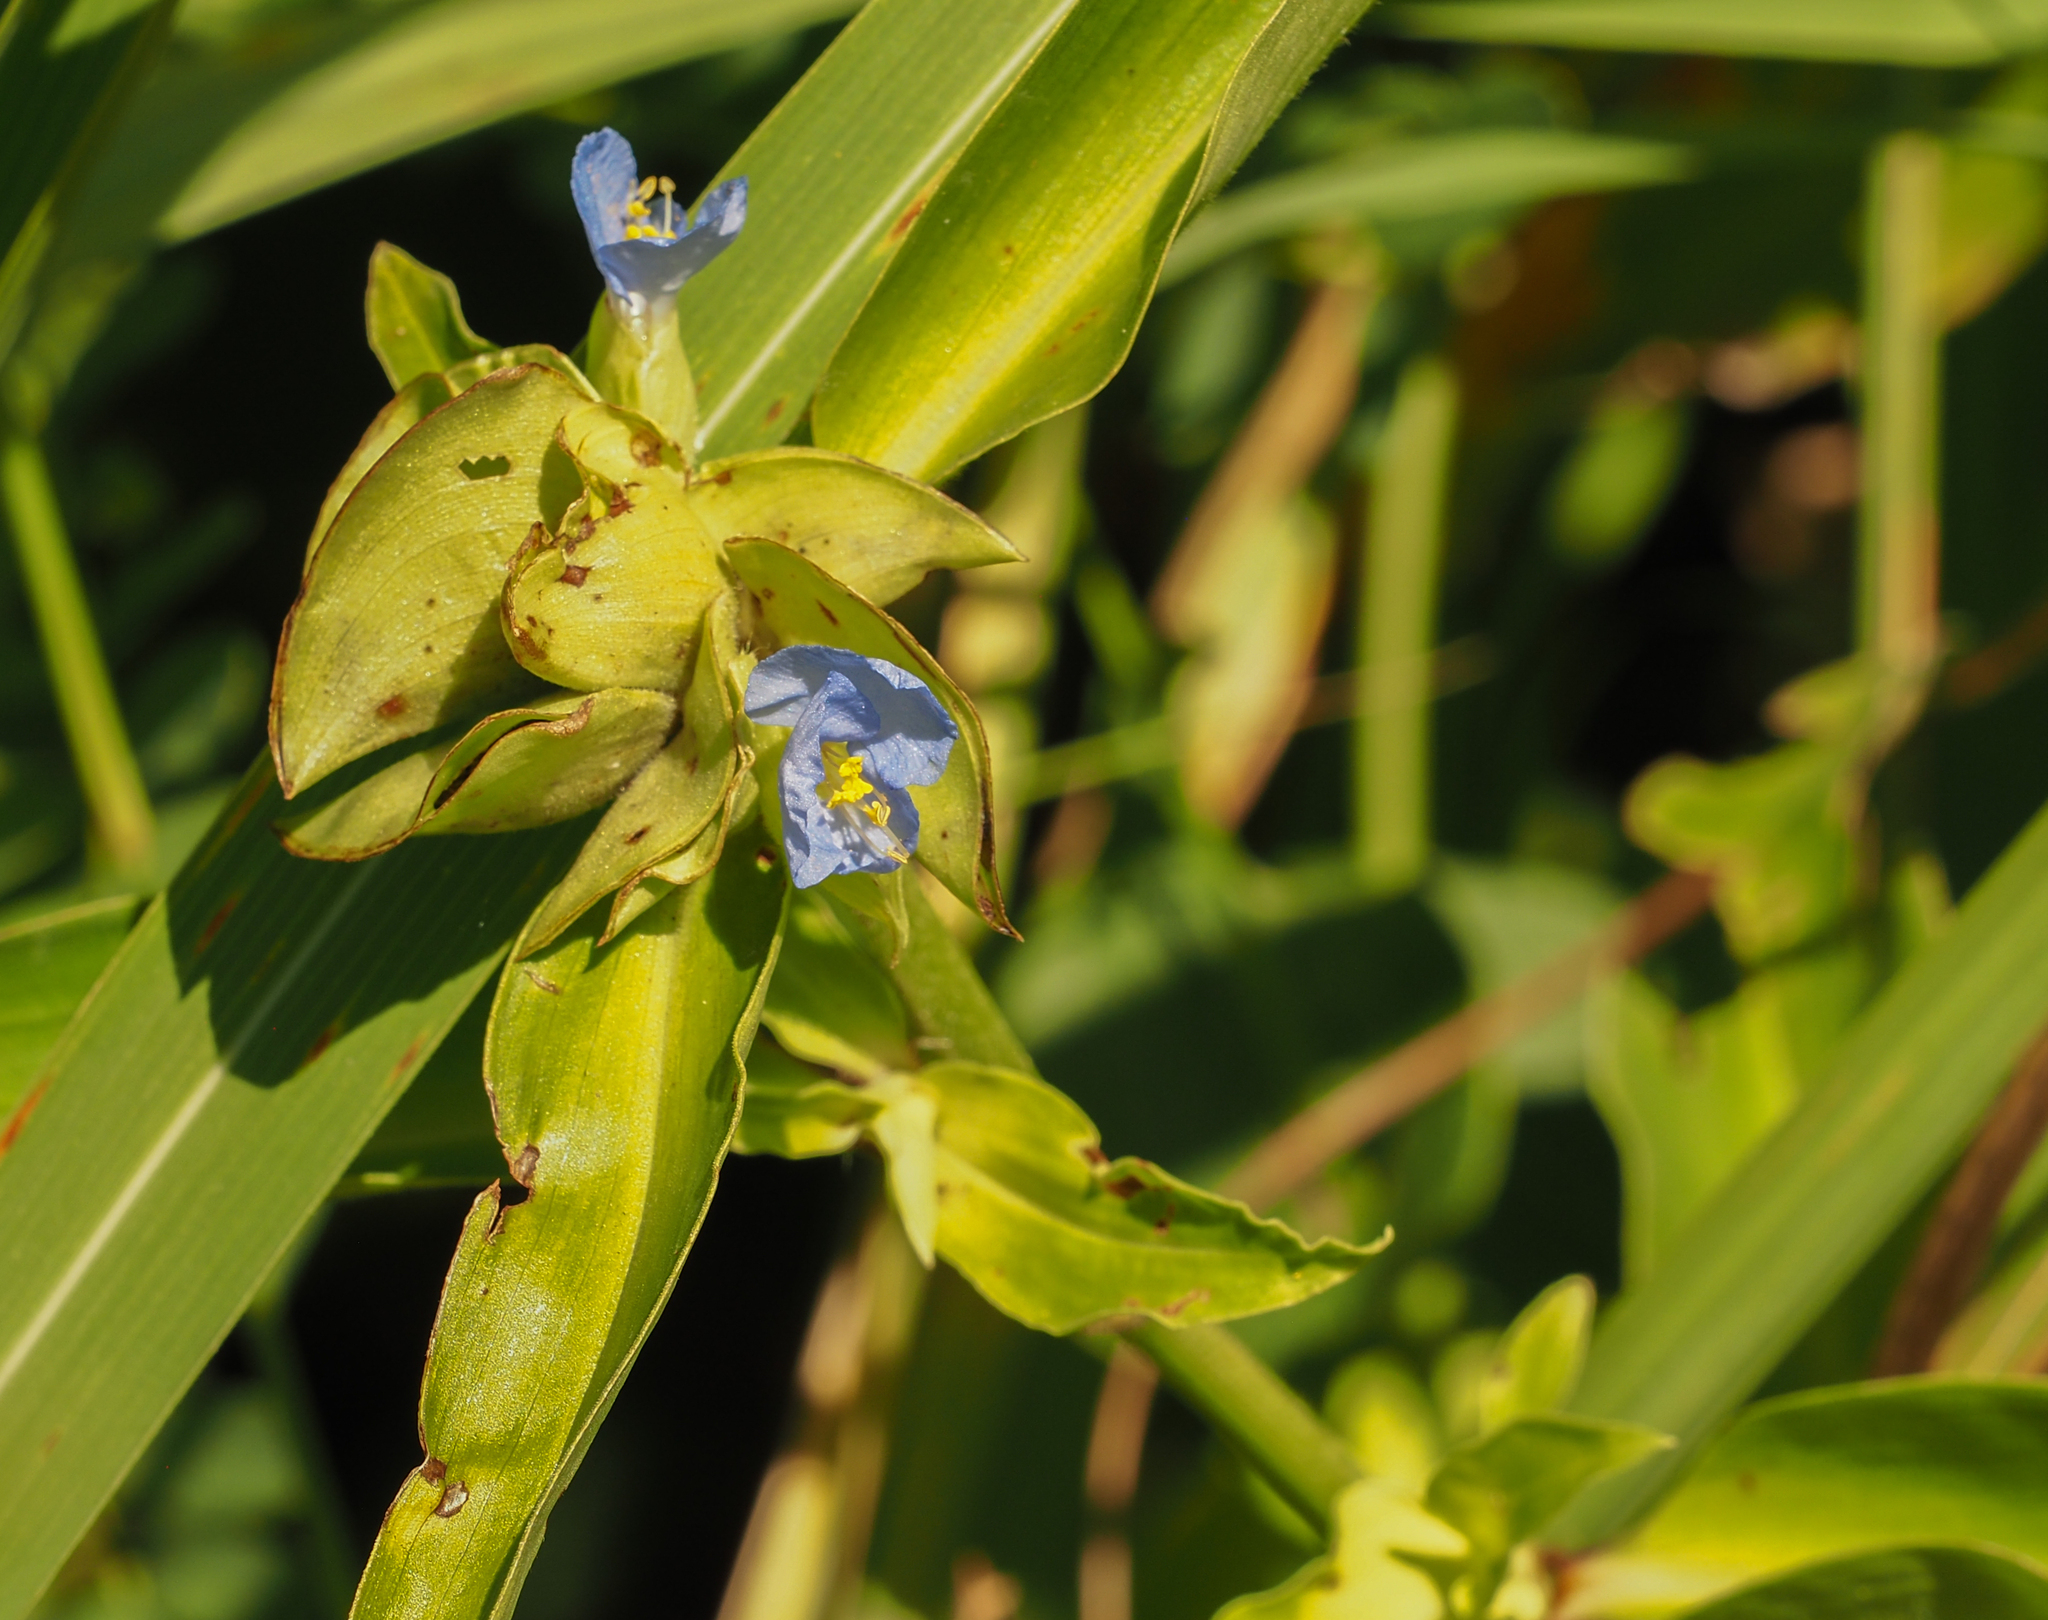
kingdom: Plantae
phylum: Tracheophyta
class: Liliopsida
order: Commelinales
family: Commelinaceae
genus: Commelina
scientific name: Commelina virginica
